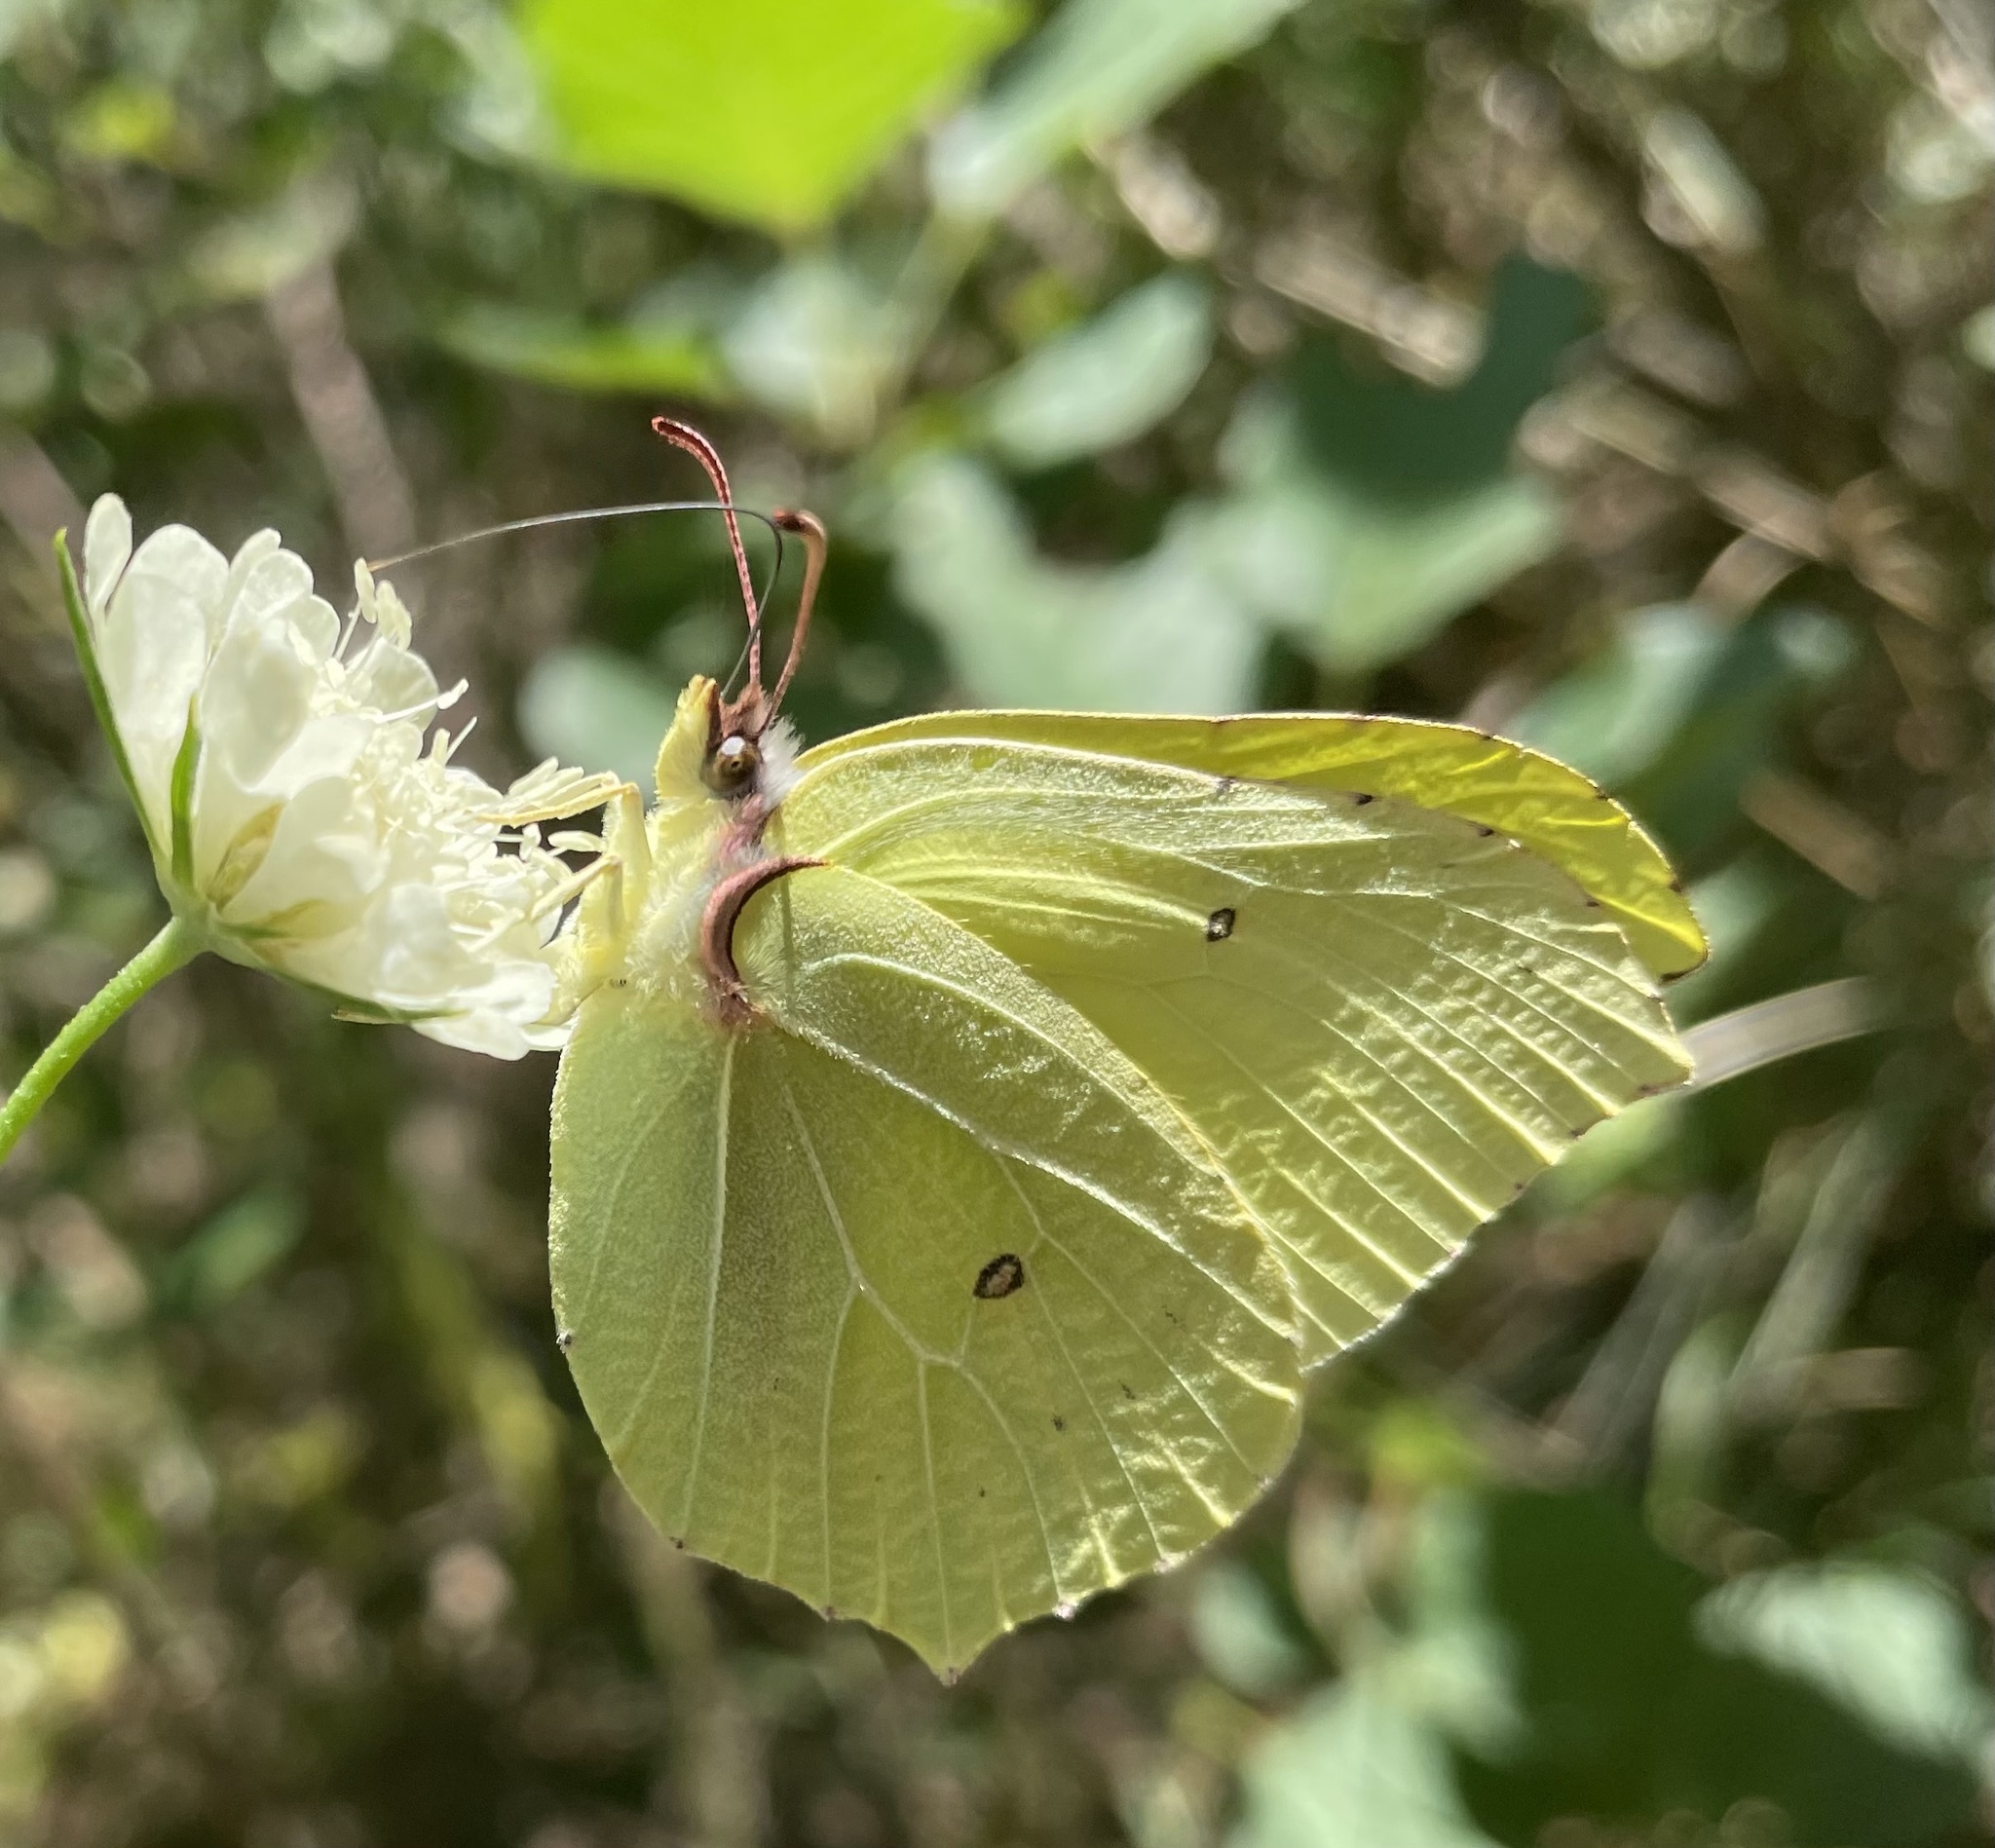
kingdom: Animalia
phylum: Arthropoda
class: Insecta
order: Lepidoptera
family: Pieridae
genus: Gonepteryx
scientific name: Gonepteryx rhamni
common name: Brimstone
